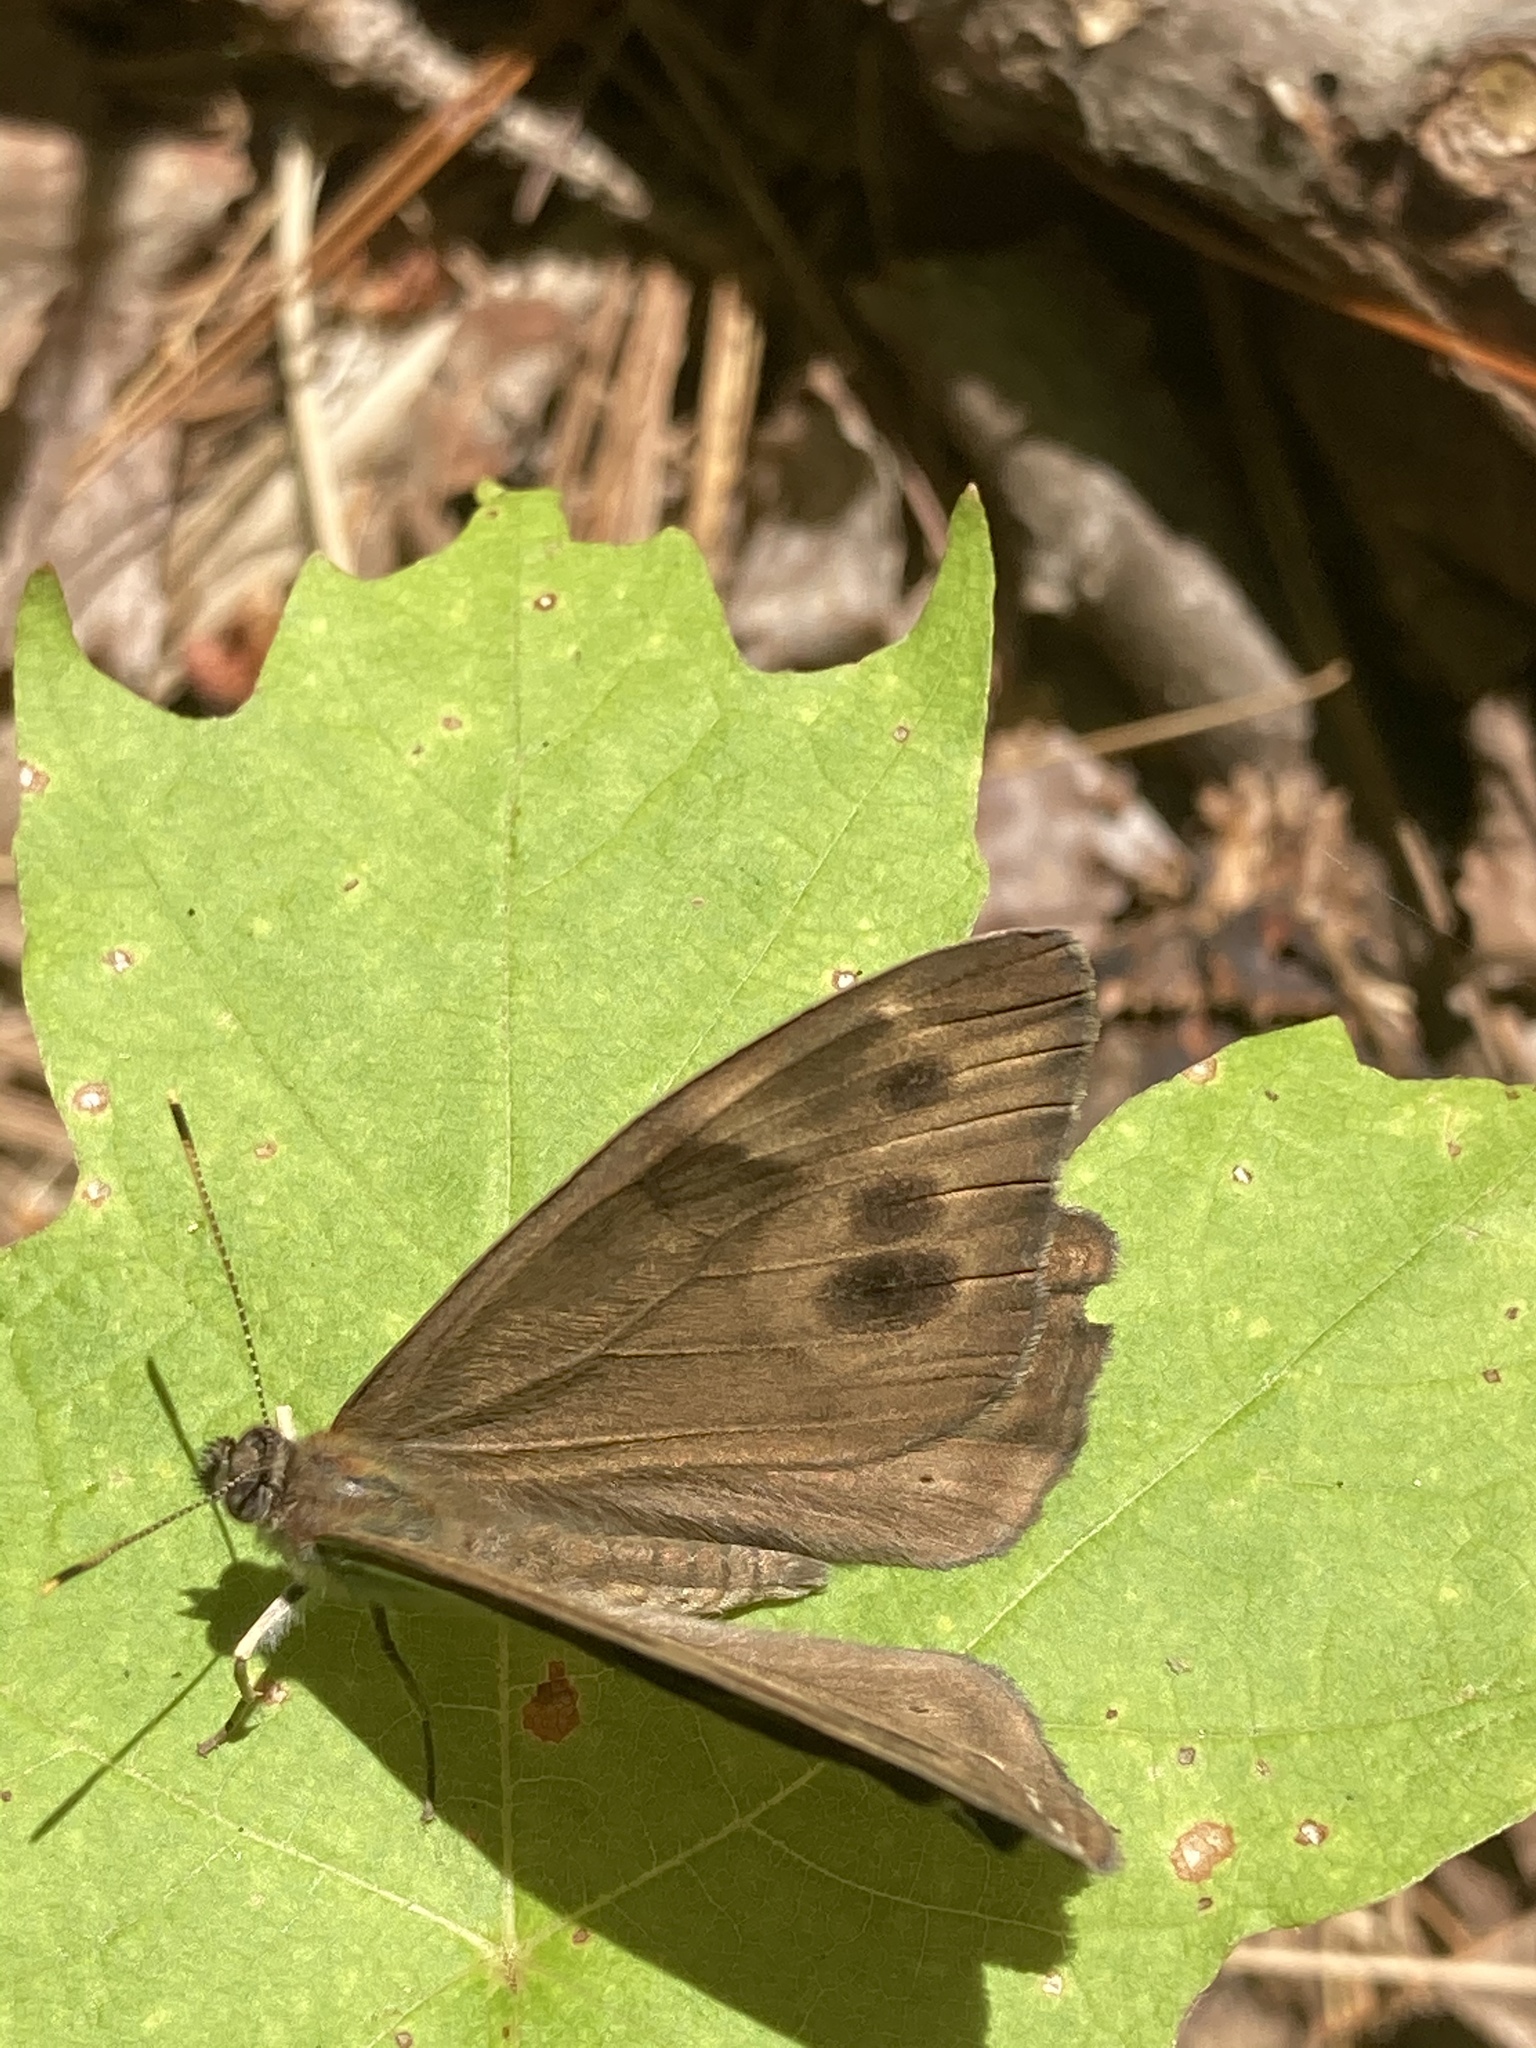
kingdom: Animalia
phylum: Arthropoda
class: Insecta
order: Lepidoptera
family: Nymphalidae
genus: Lethe
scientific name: Lethe anthedon
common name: Northern pearly-eye
